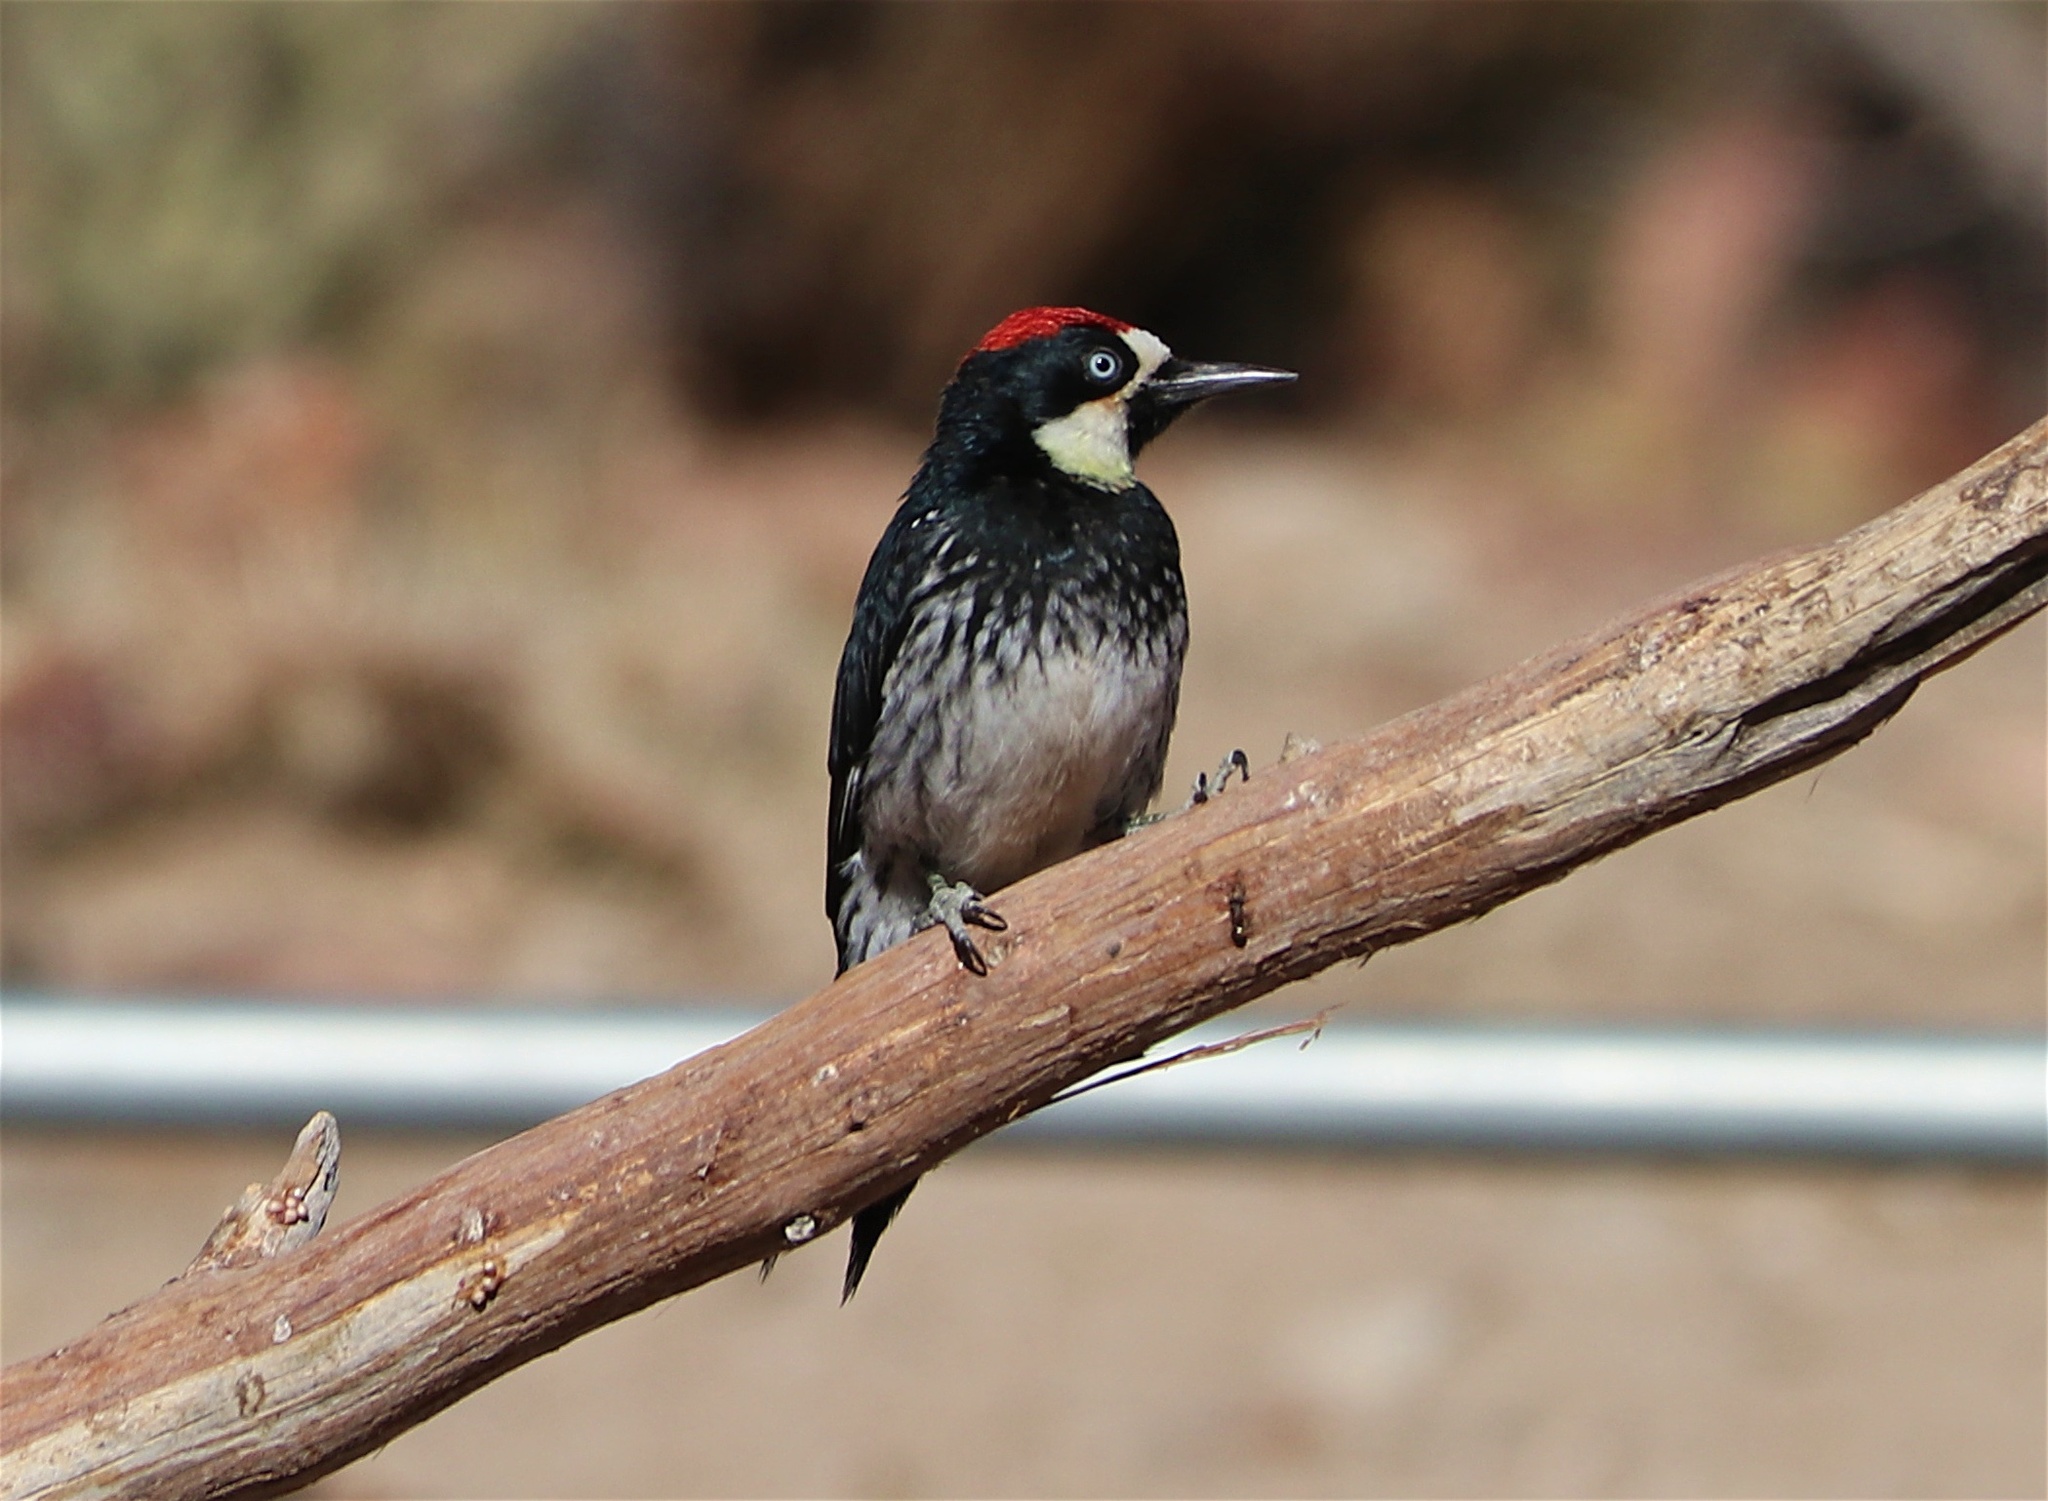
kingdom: Animalia
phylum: Chordata
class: Aves
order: Piciformes
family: Picidae
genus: Melanerpes
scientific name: Melanerpes formicivorus
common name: Acorn woodpecker
